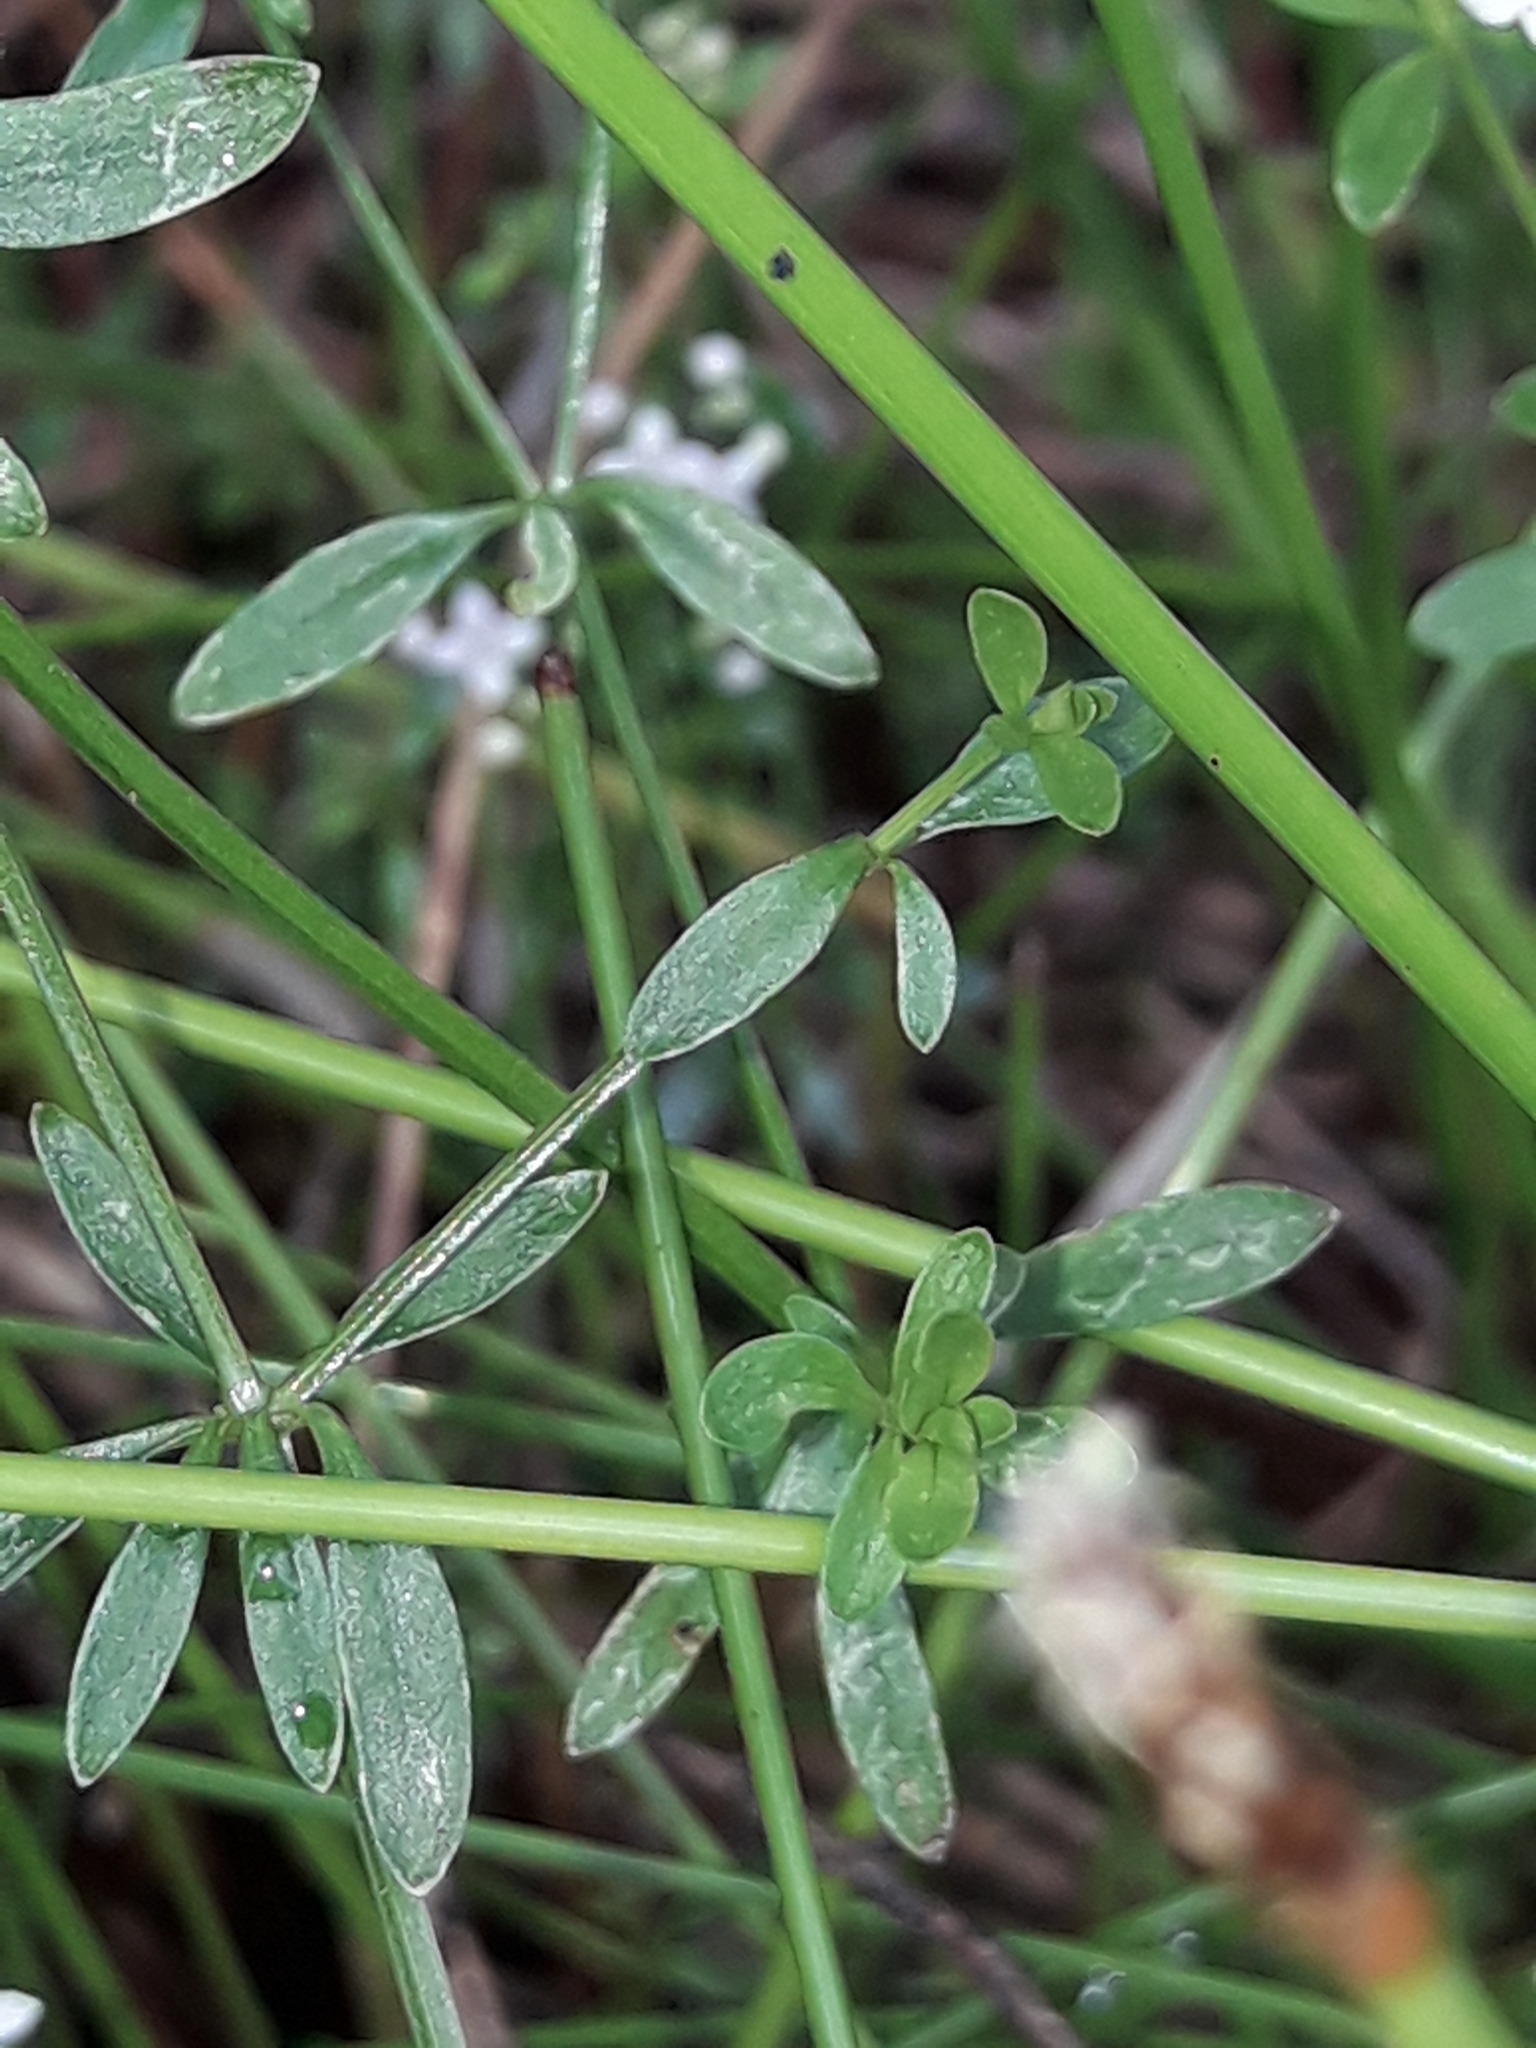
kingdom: Plantae
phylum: Tracheophyta
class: Magnoliopsida
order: Gentianales
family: Rubiaceae
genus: Galium
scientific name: Galium palustre
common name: Common marsh-bedstraw
